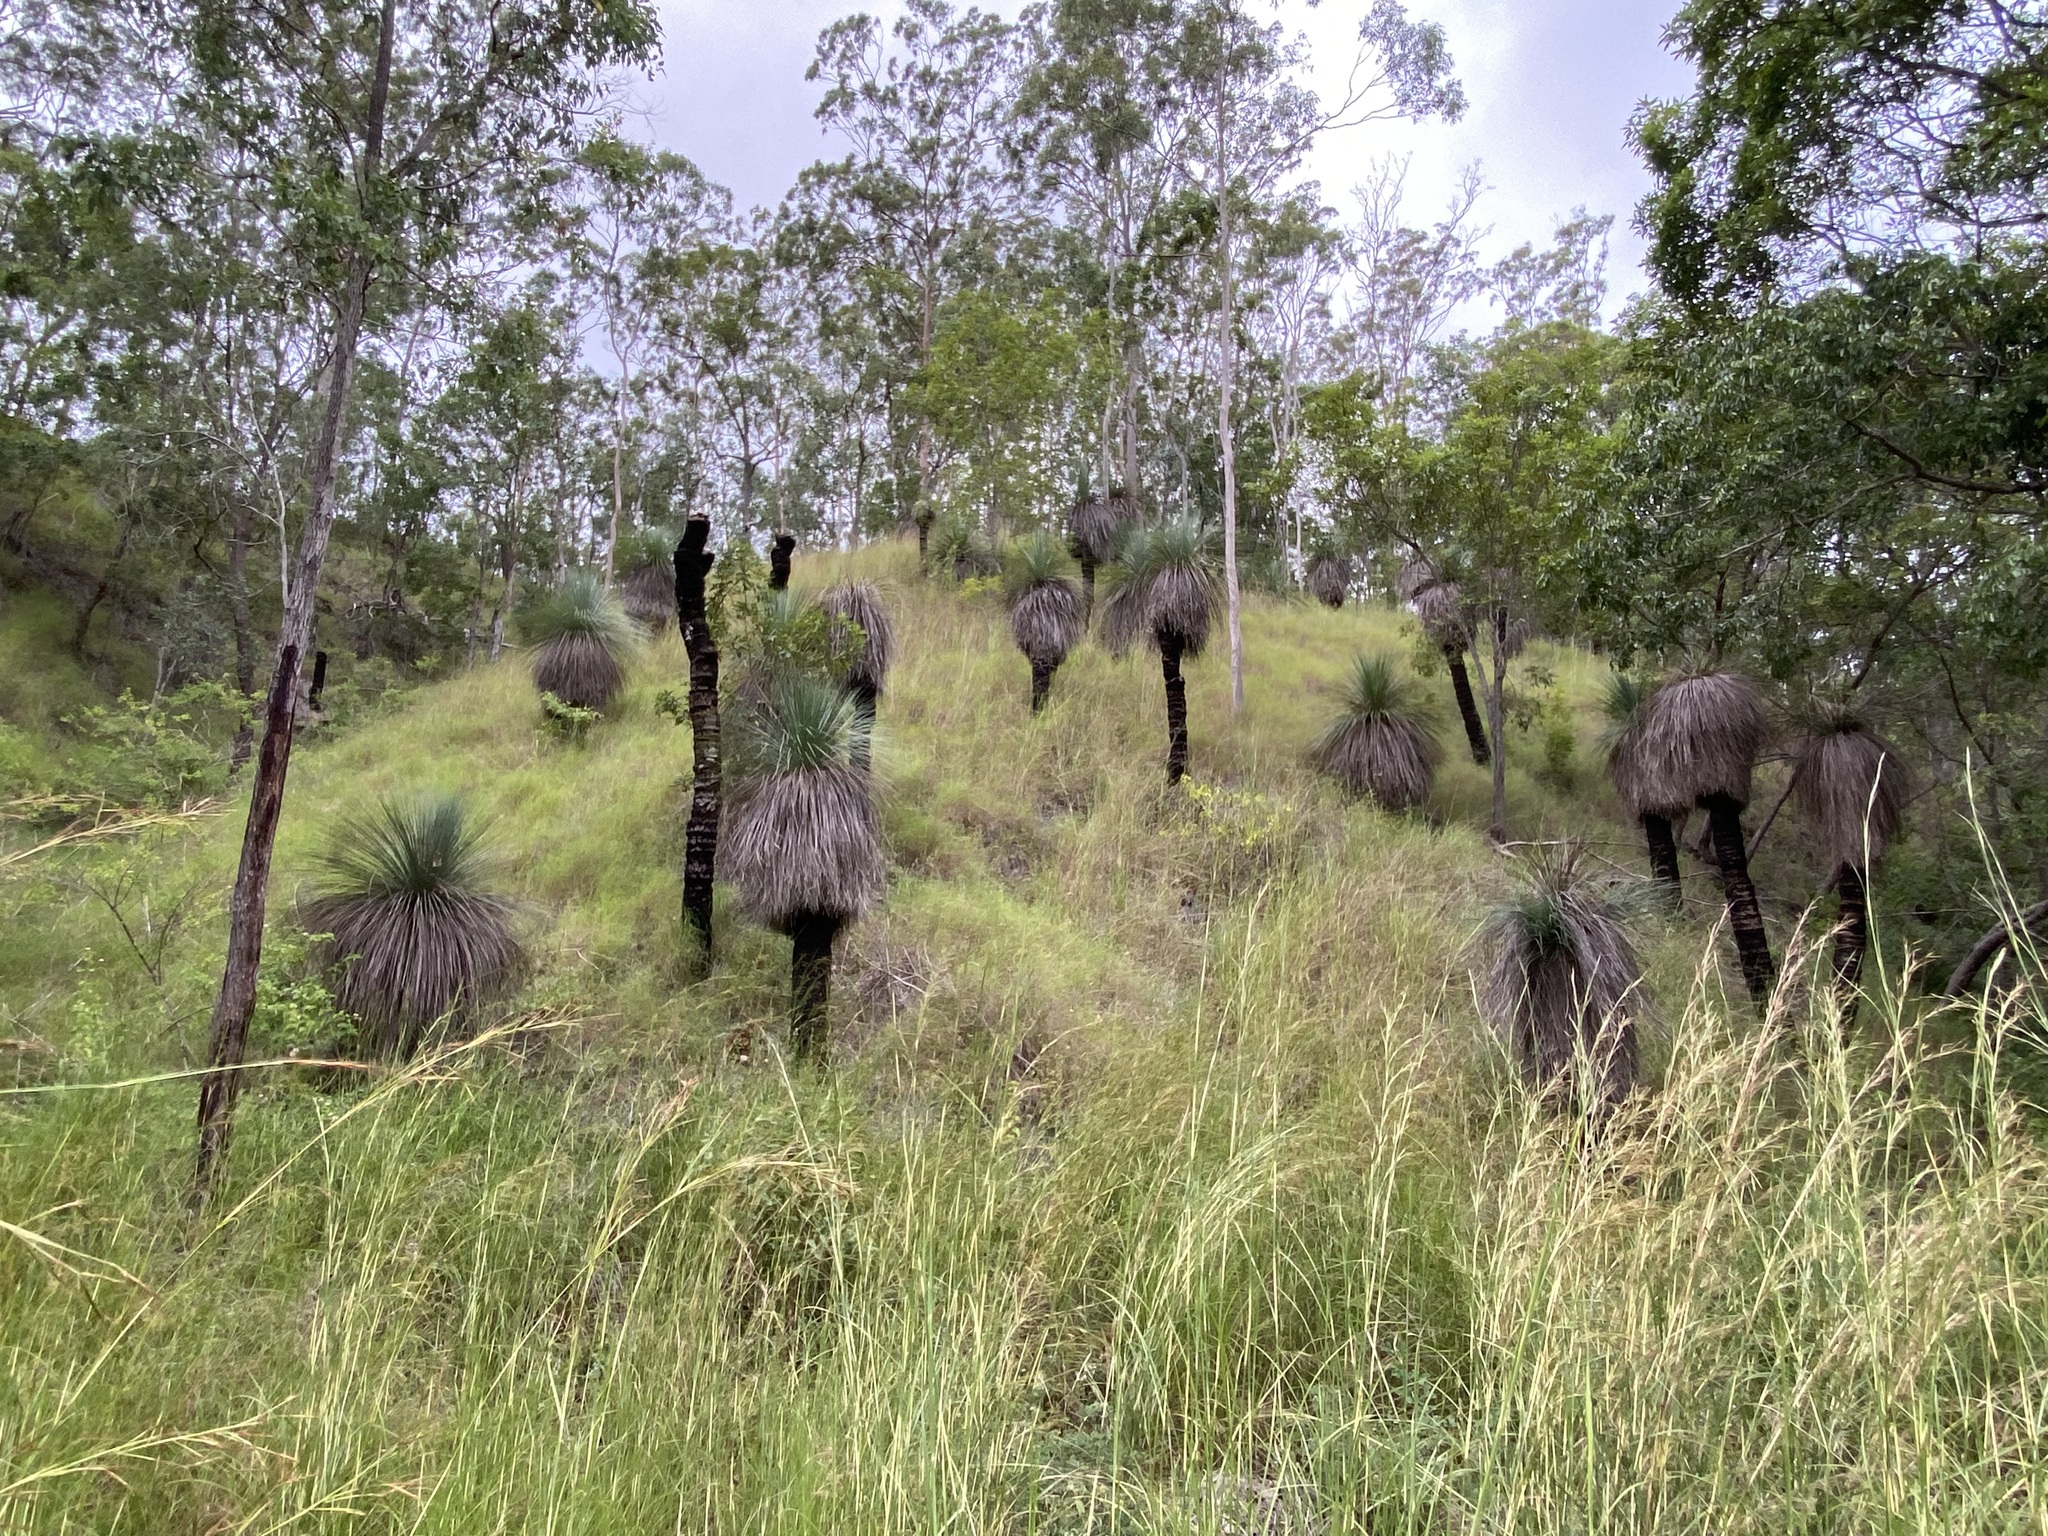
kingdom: Plantae
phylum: Tracheophyta
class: Liliopsida
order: Asparagales
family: Asphodelaceae
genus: Xanthorrhoea
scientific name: Xanthorrhoea glauca
